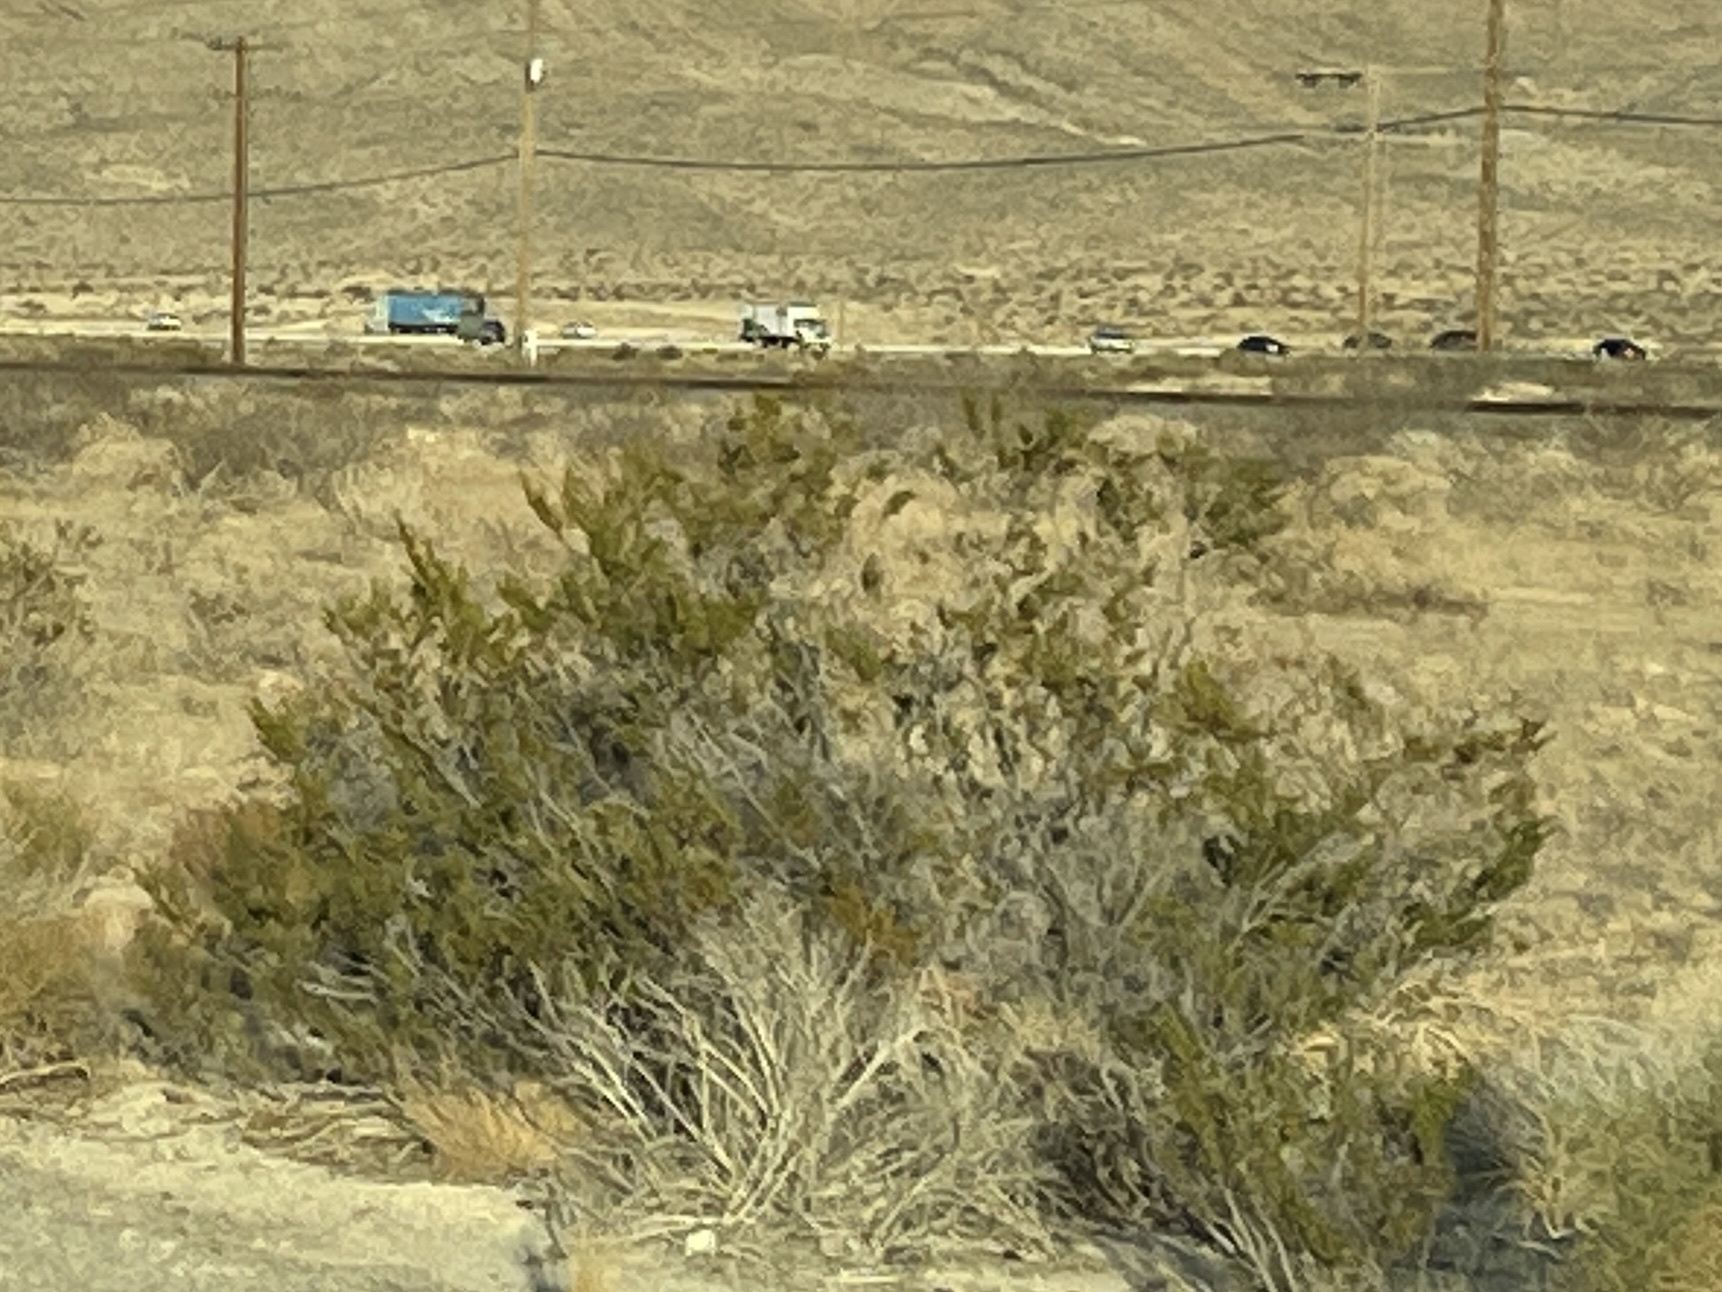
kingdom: Plantae
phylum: Tracheophyta
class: Magnoliopsida
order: Zygophyllales
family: Zygophyllaceae
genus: Larrea
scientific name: Larrea tridentata
